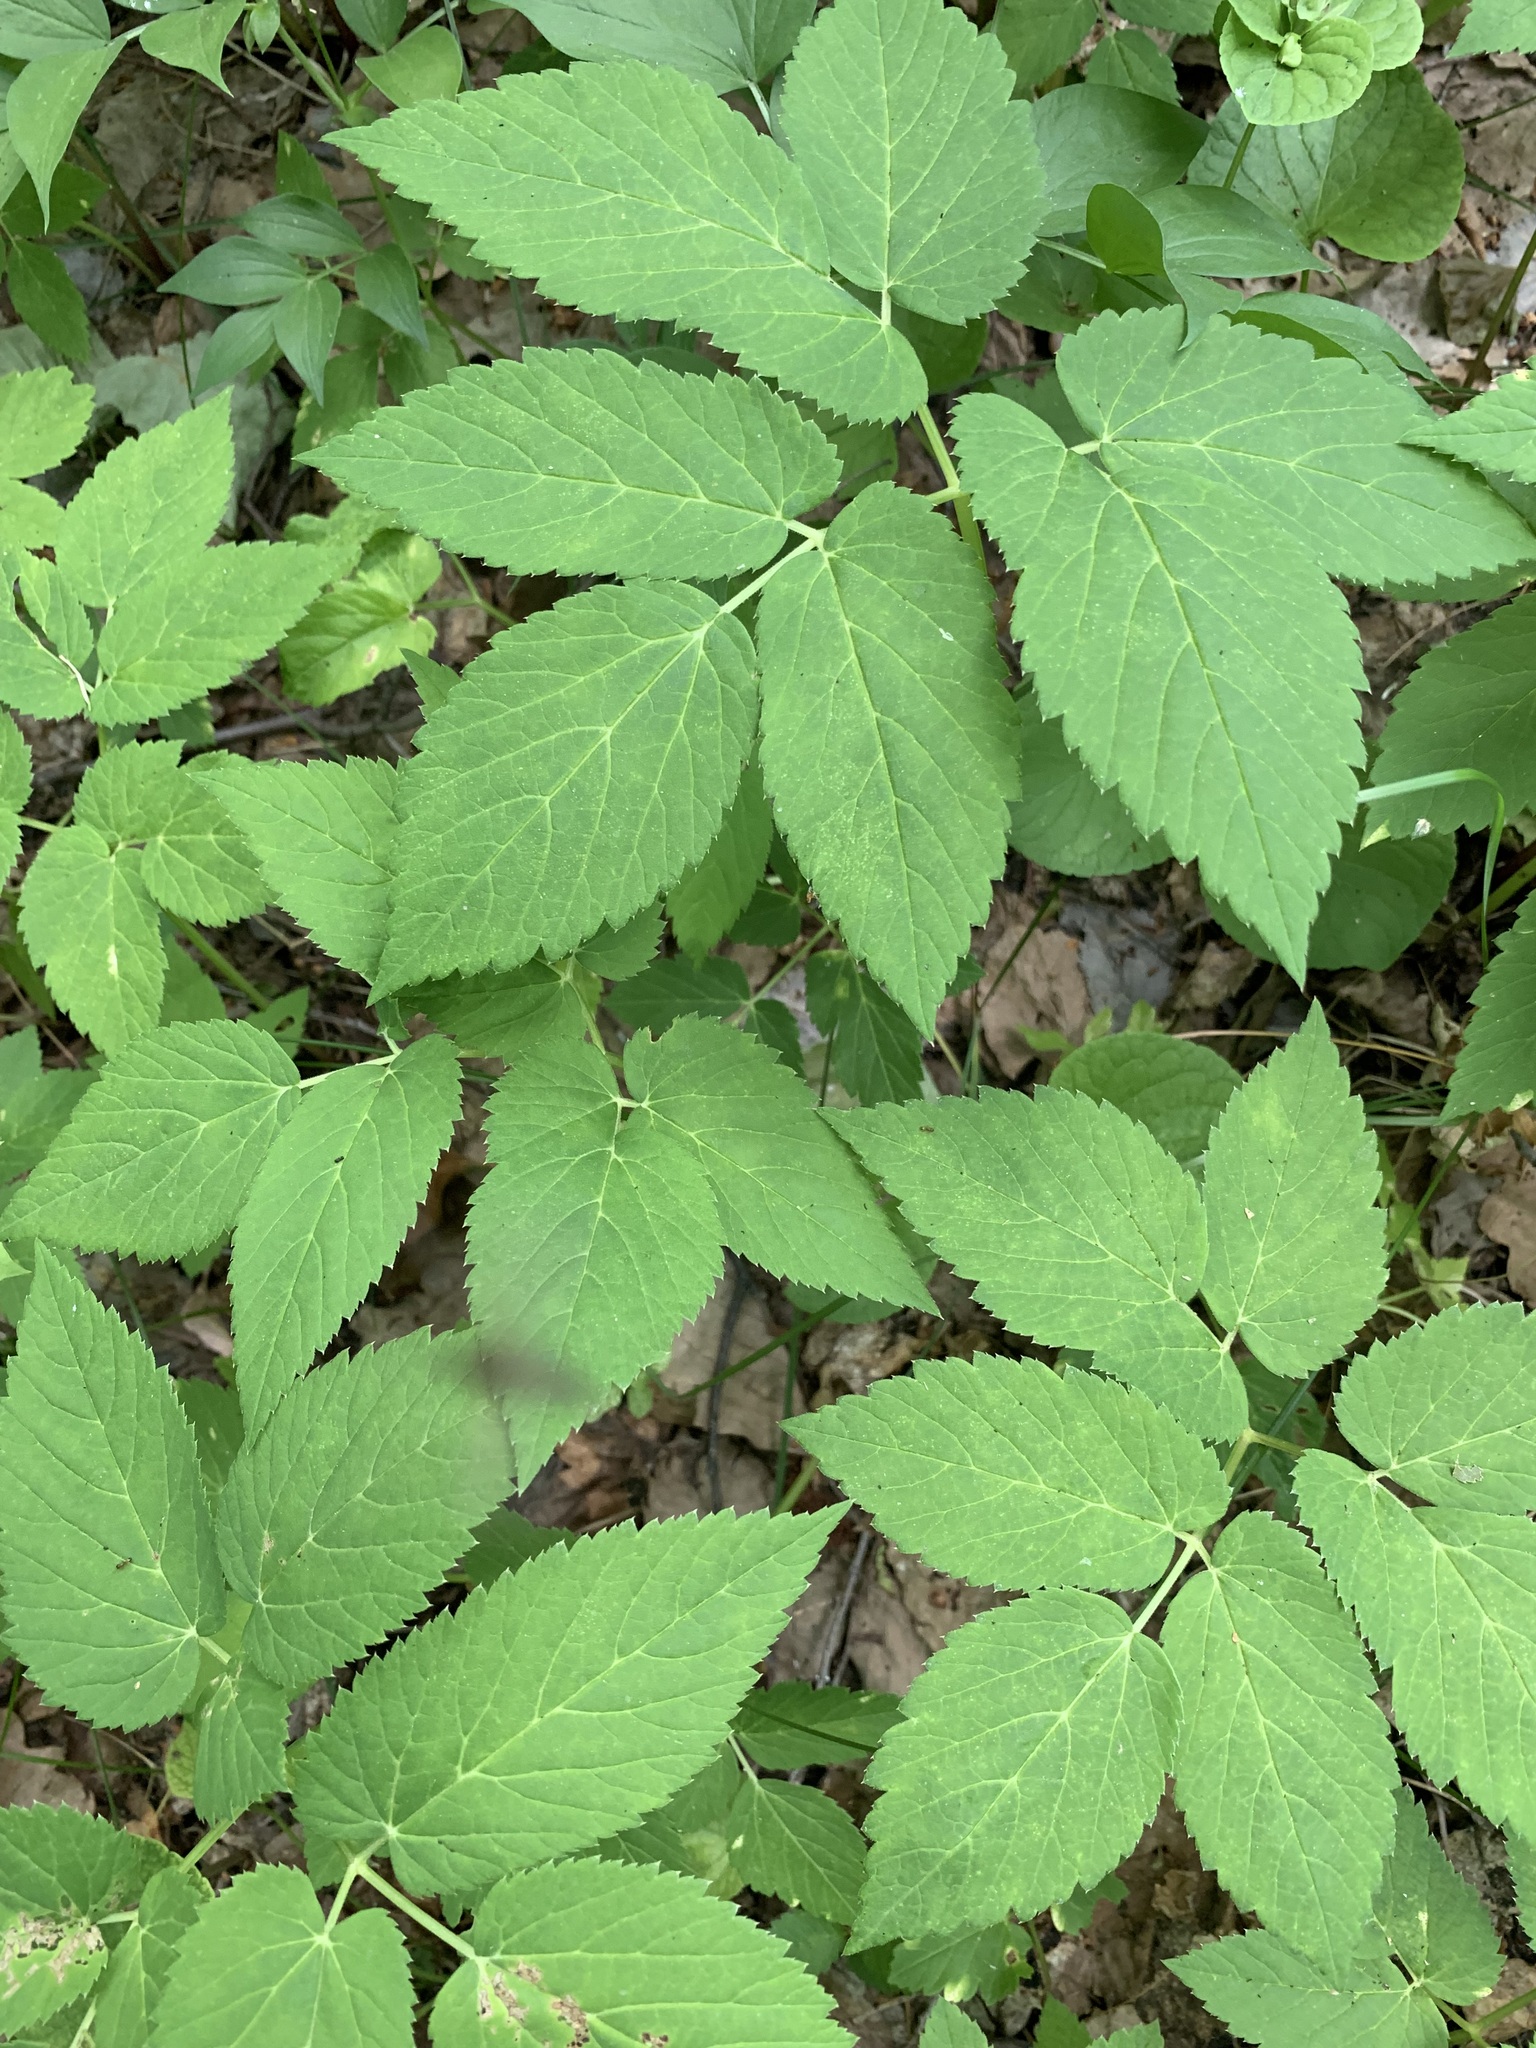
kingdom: Plantae
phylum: Tracheophyta
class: Magnoliopsida
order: Apiales
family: Apiaceae
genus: Aegopodium
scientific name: Aegopodium podagraria
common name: Ground-elder
